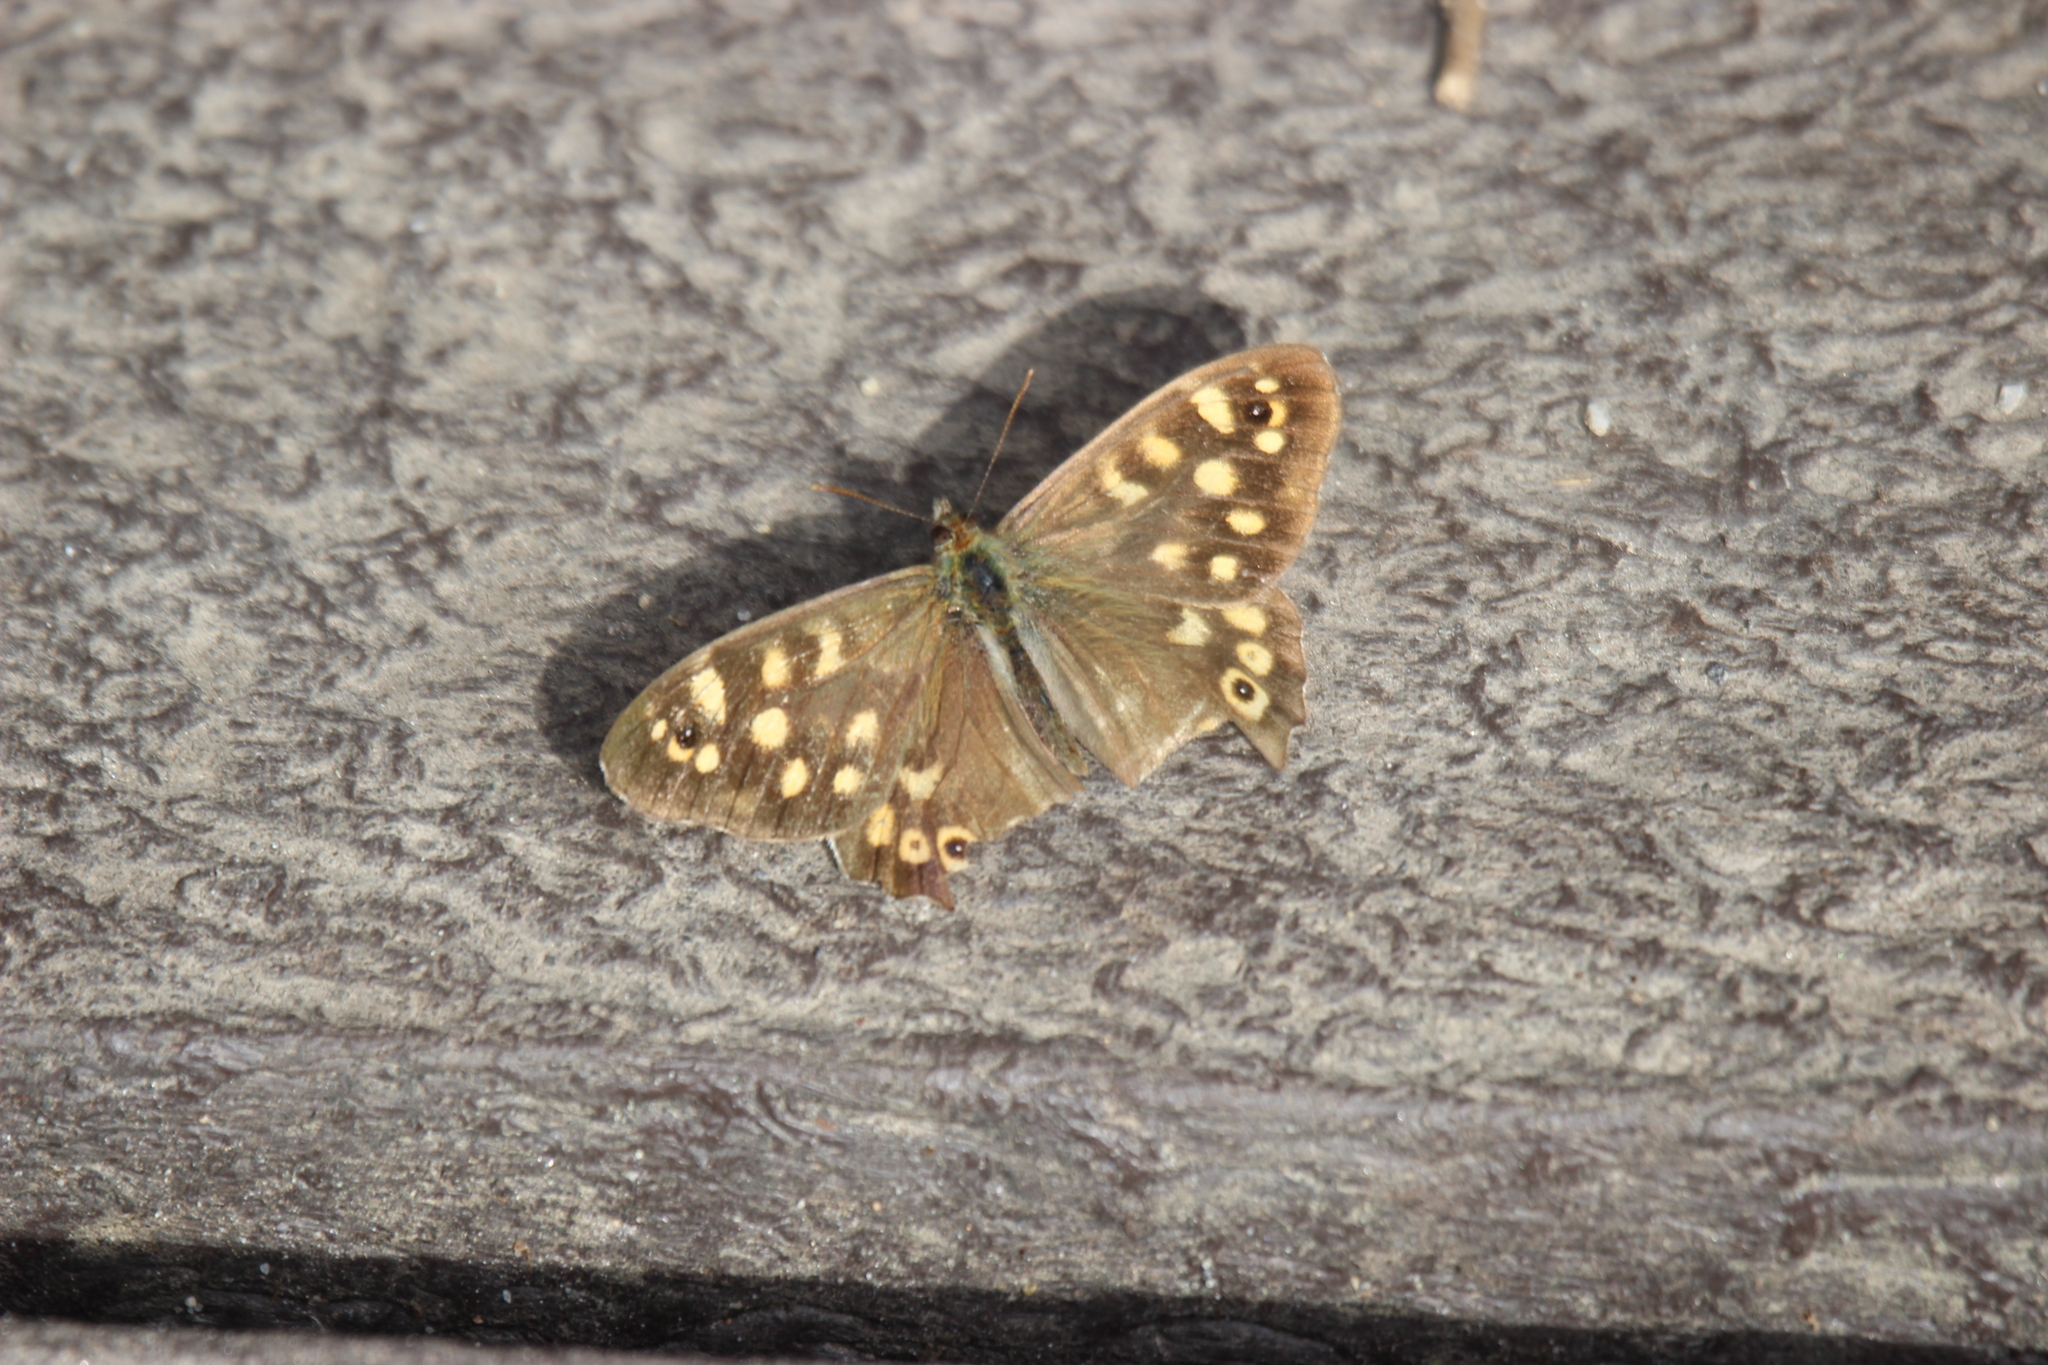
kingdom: Animalia
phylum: Arthropoda
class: Insecta
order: Lepidoptera
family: Nymphalidae
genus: Pararge
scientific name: Pararge aegeria
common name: Speckled wood
